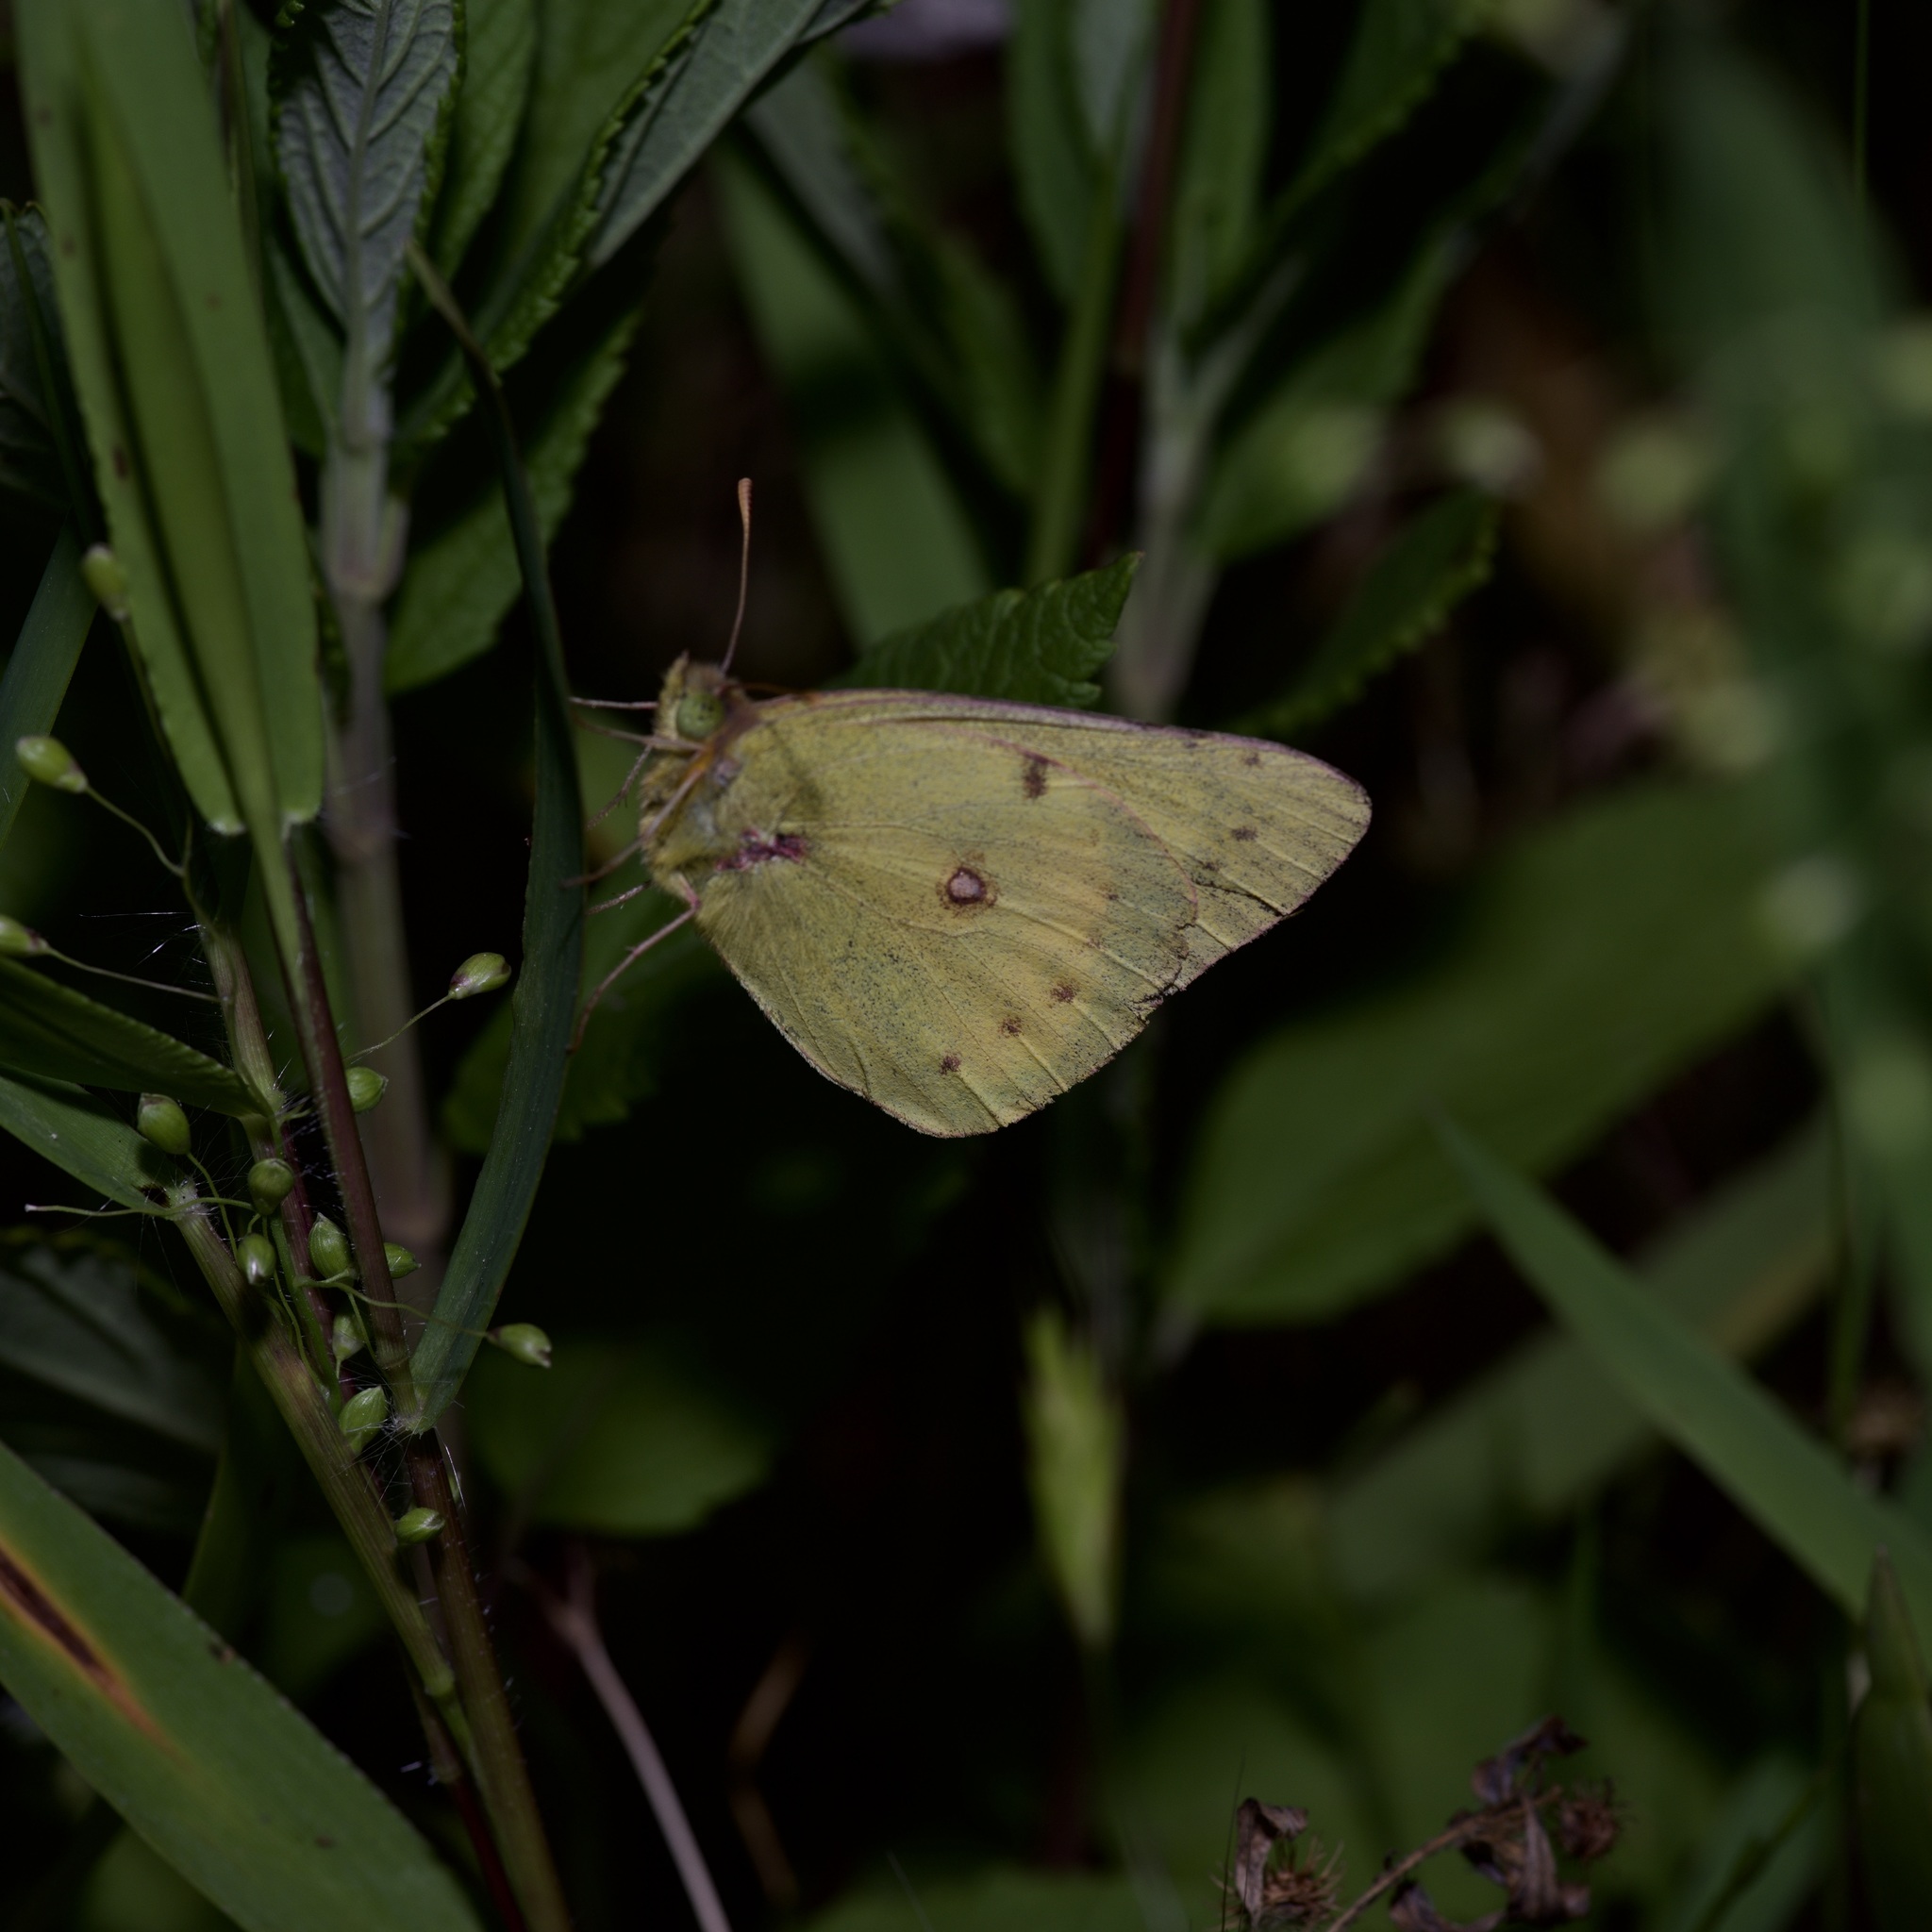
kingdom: Animalia
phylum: Arthropoda
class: Insecta
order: Lepidoptera
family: Pieridae
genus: Colias
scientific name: Colias eurytheme
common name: Alfalfa butterfly
